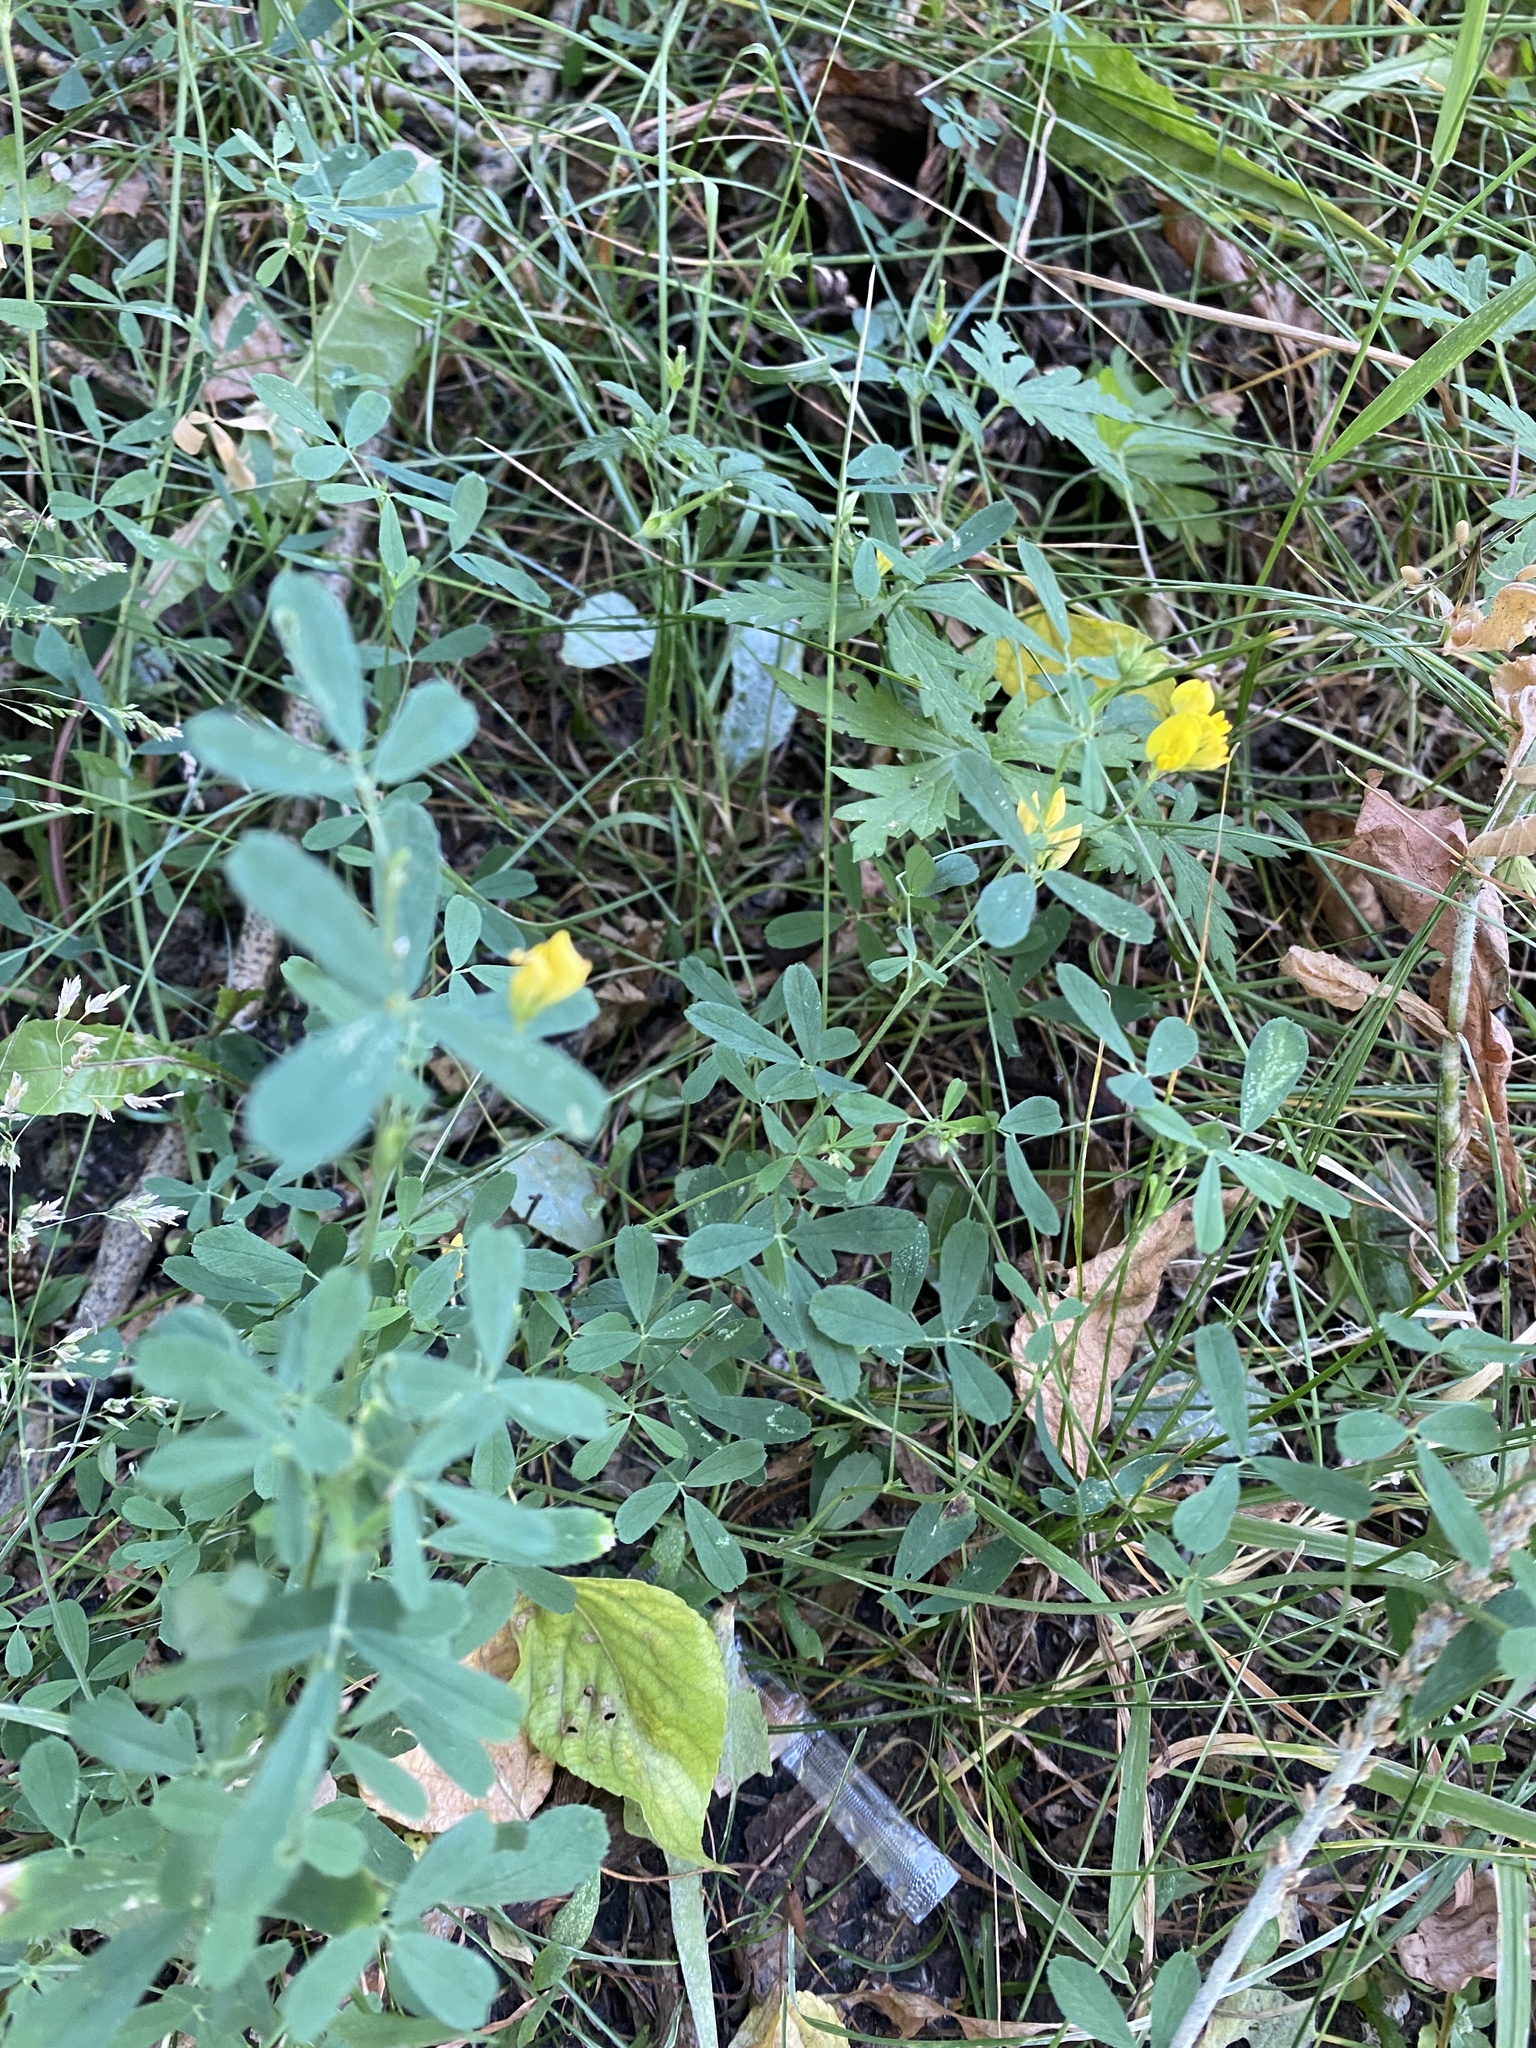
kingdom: Plantae
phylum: Tracheophyta
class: Magnoliopsida
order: Fabales
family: Fabaceae
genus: Medicago
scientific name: Medicago falcata
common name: Sickle medick
